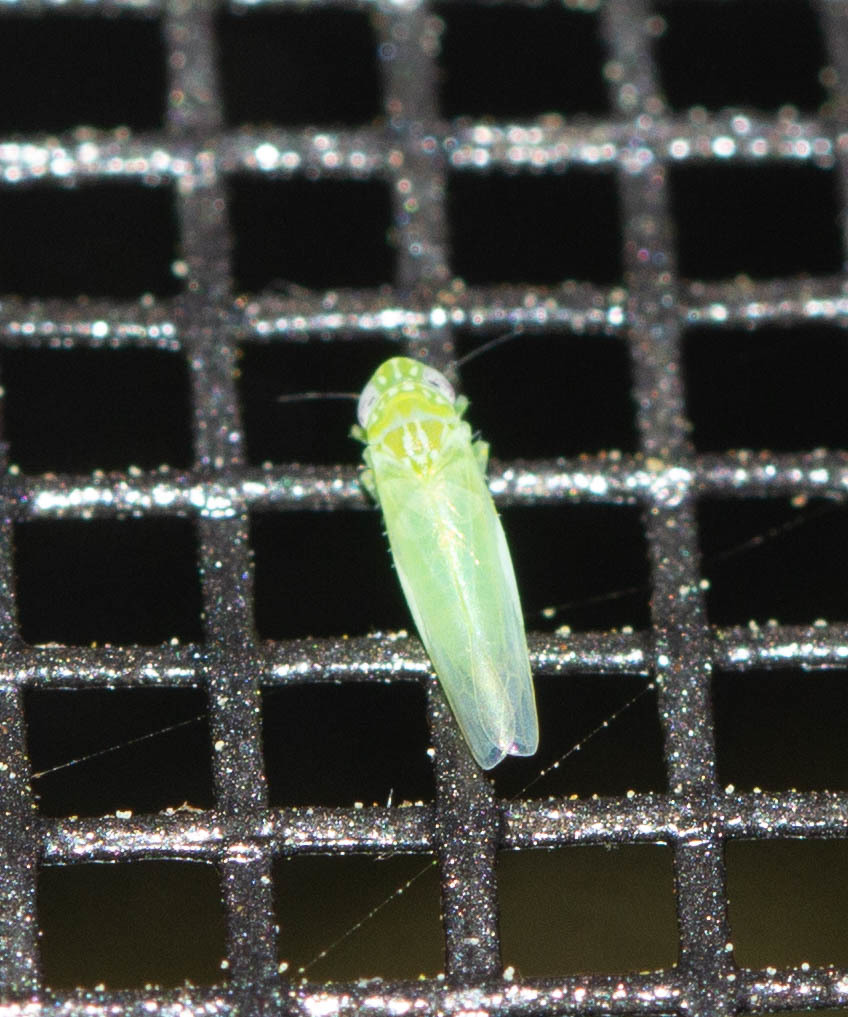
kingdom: Animalia
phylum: Arthropoda
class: Insecta
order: Hemiptera
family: Cicadellidae
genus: Empoasca
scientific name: Empoasca fabae
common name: Potato leafhopper
